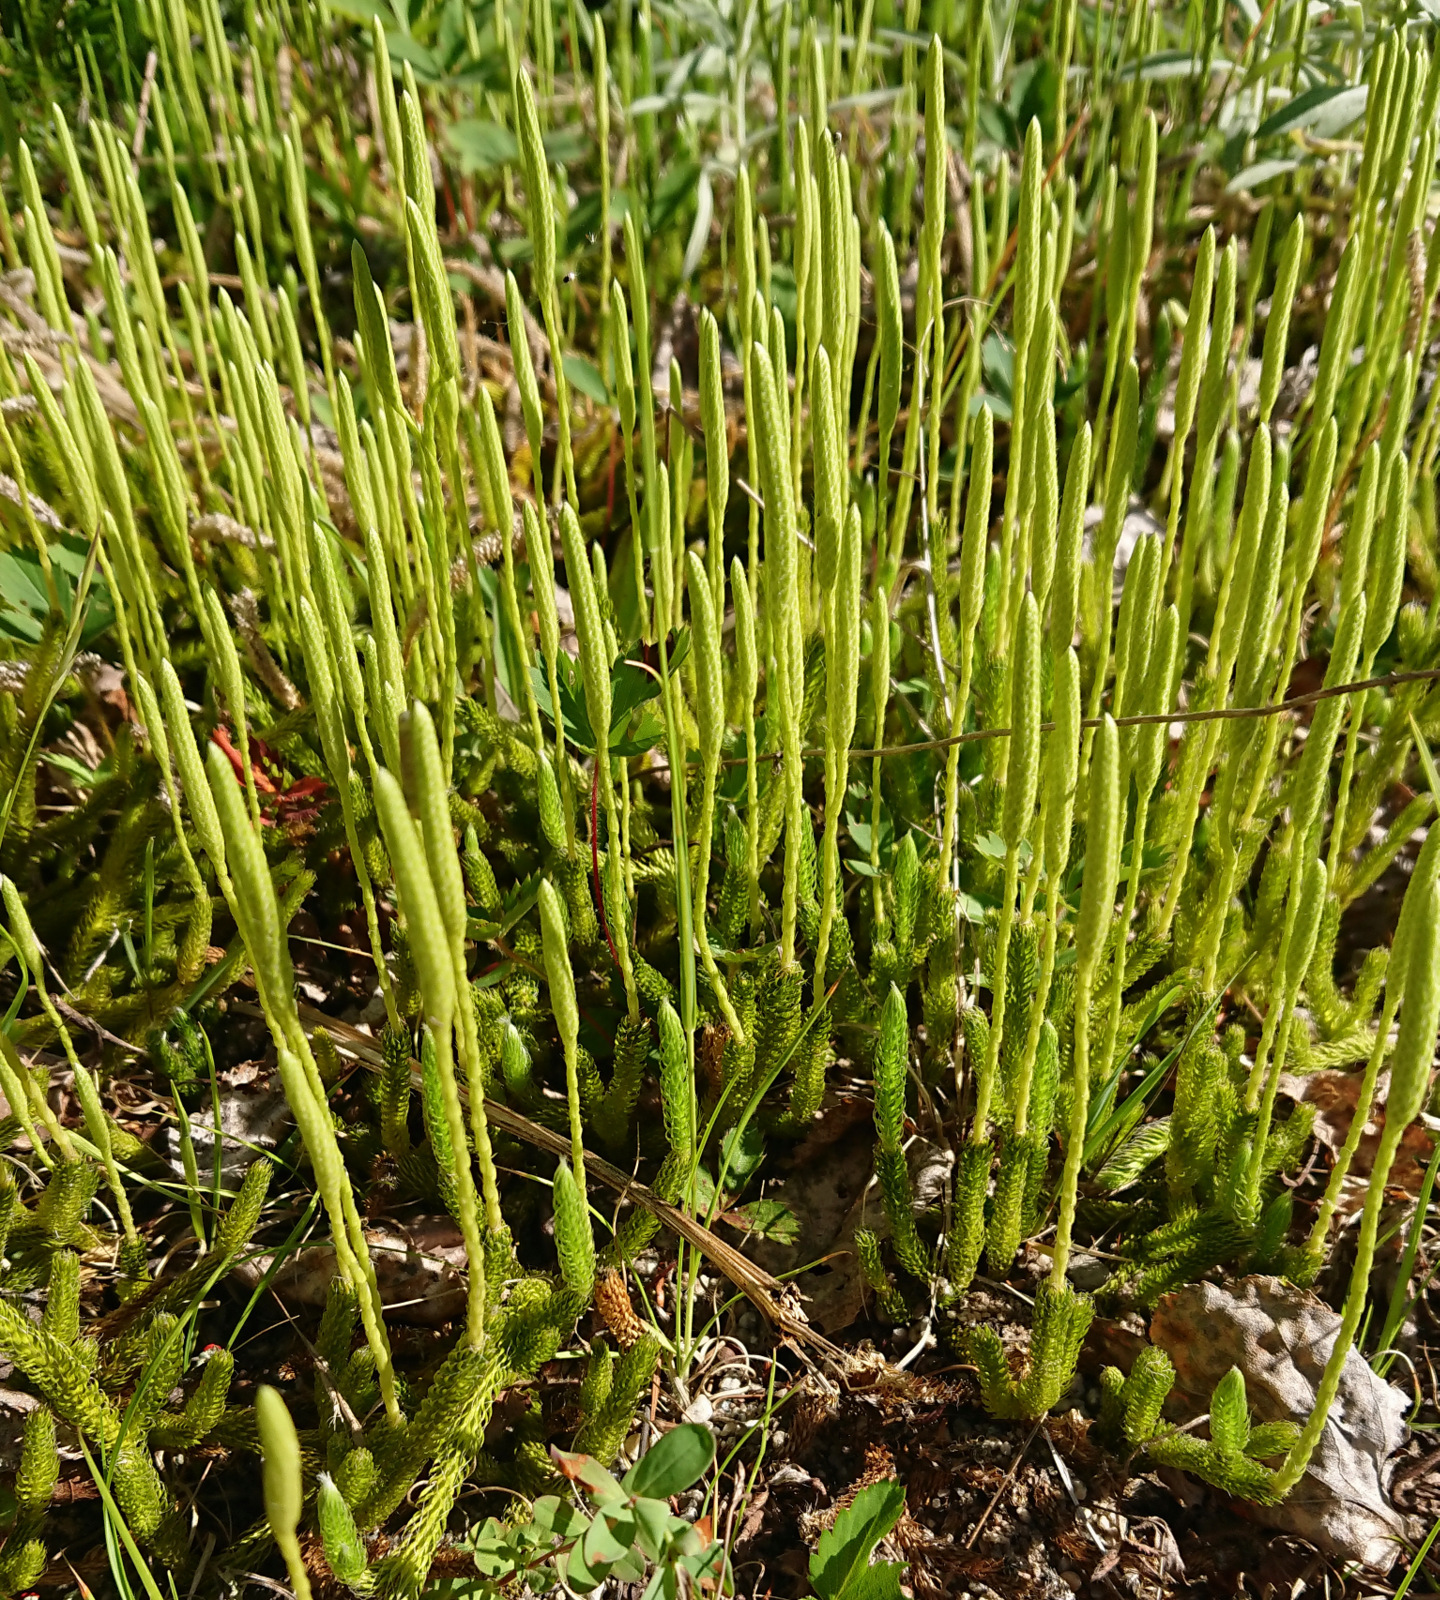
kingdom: Plantae
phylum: Tracheophyta
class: Lycopodiopsida
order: Lycopodiales
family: Lycopodiaceae
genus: Lycopodium
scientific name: Lycopodium lagopus
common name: One-cone clubmoss
